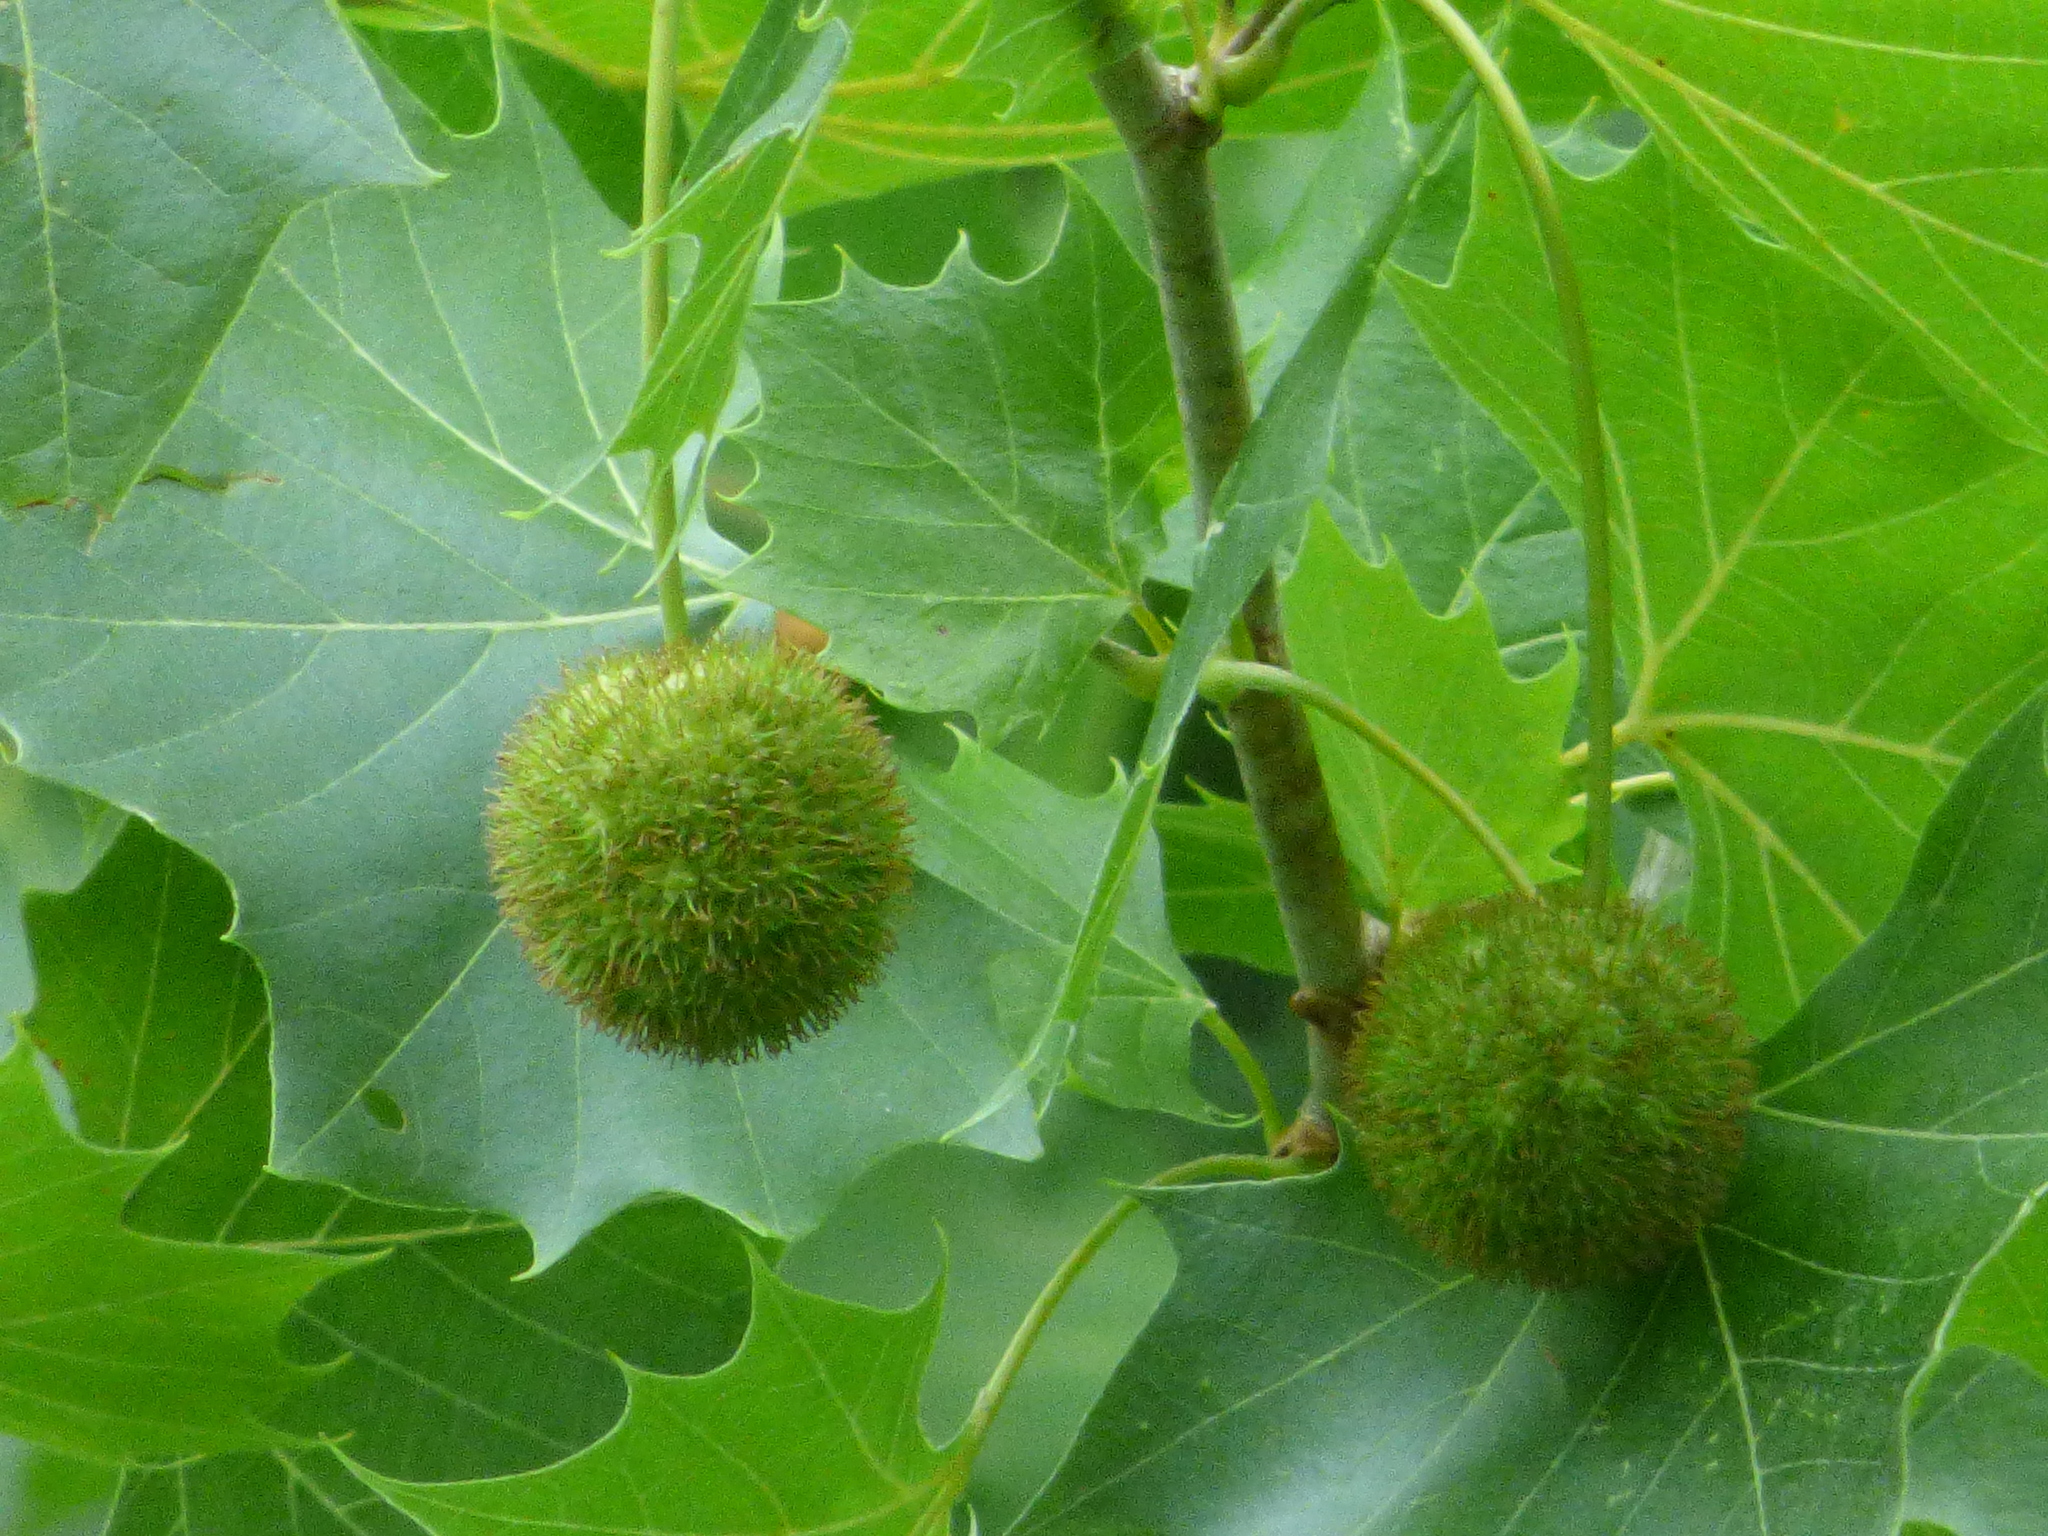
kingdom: Plantae
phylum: Tracheophyta
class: Magnoliopsida
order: Proteales
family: Platanaceae
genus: Platanus
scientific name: Platanus occidentalis
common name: American sycamore
